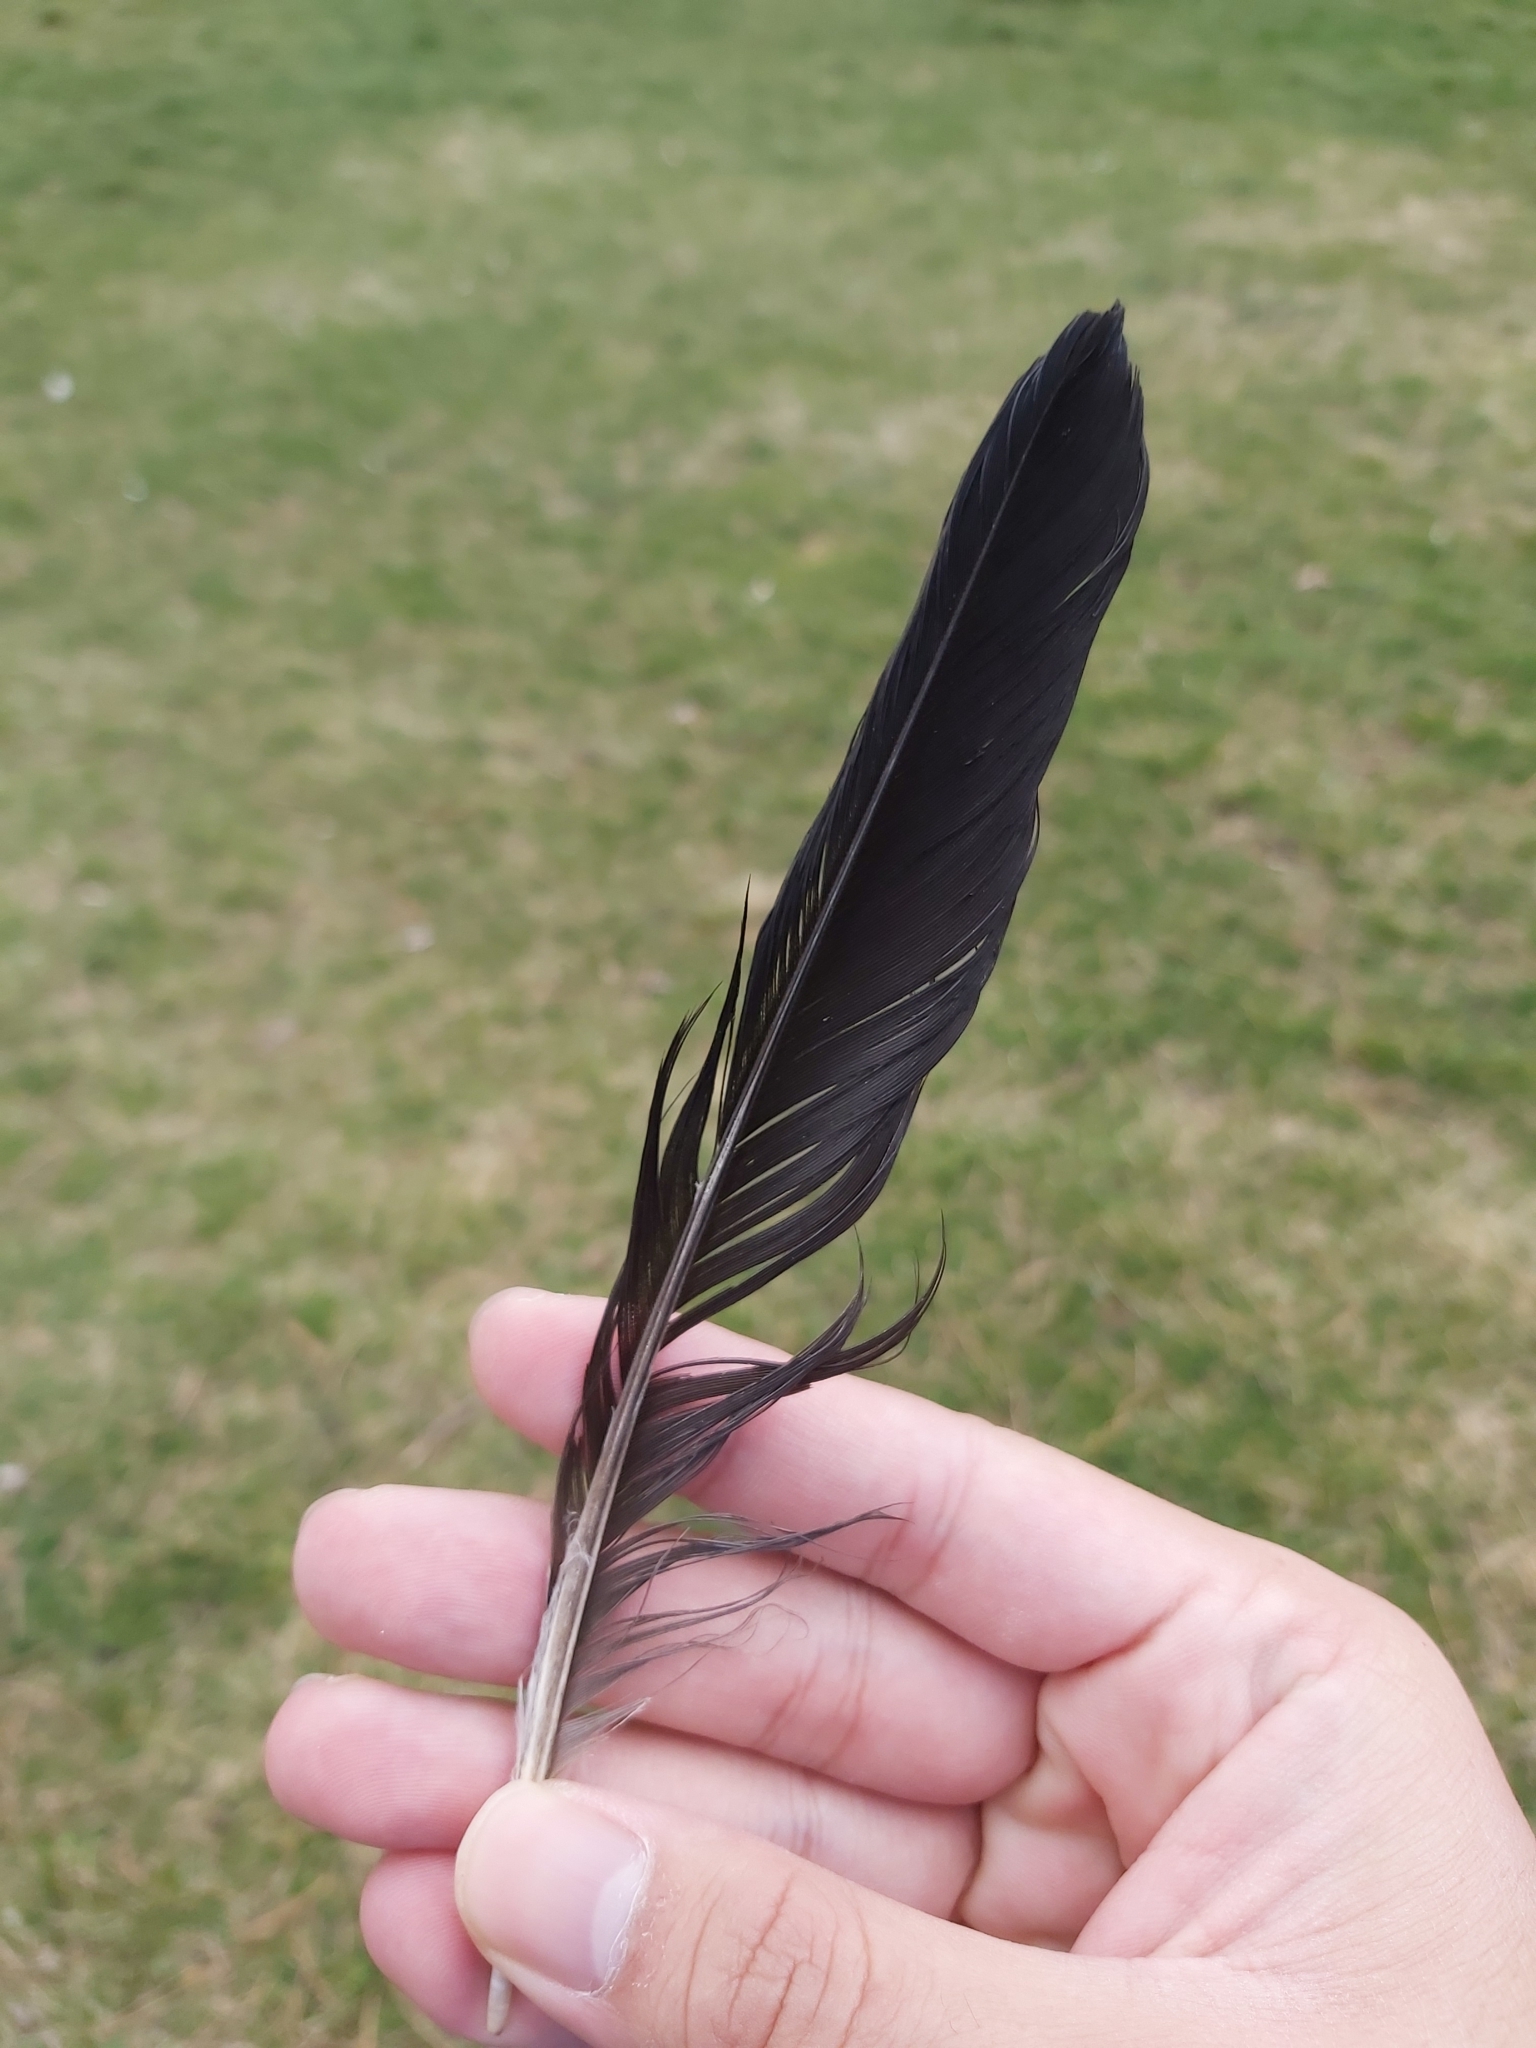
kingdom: Animalia
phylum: Chordata
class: Aves
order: Passeriformes
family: Corvidae
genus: Corvus
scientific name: Corvus cornix
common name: Hooded crow
